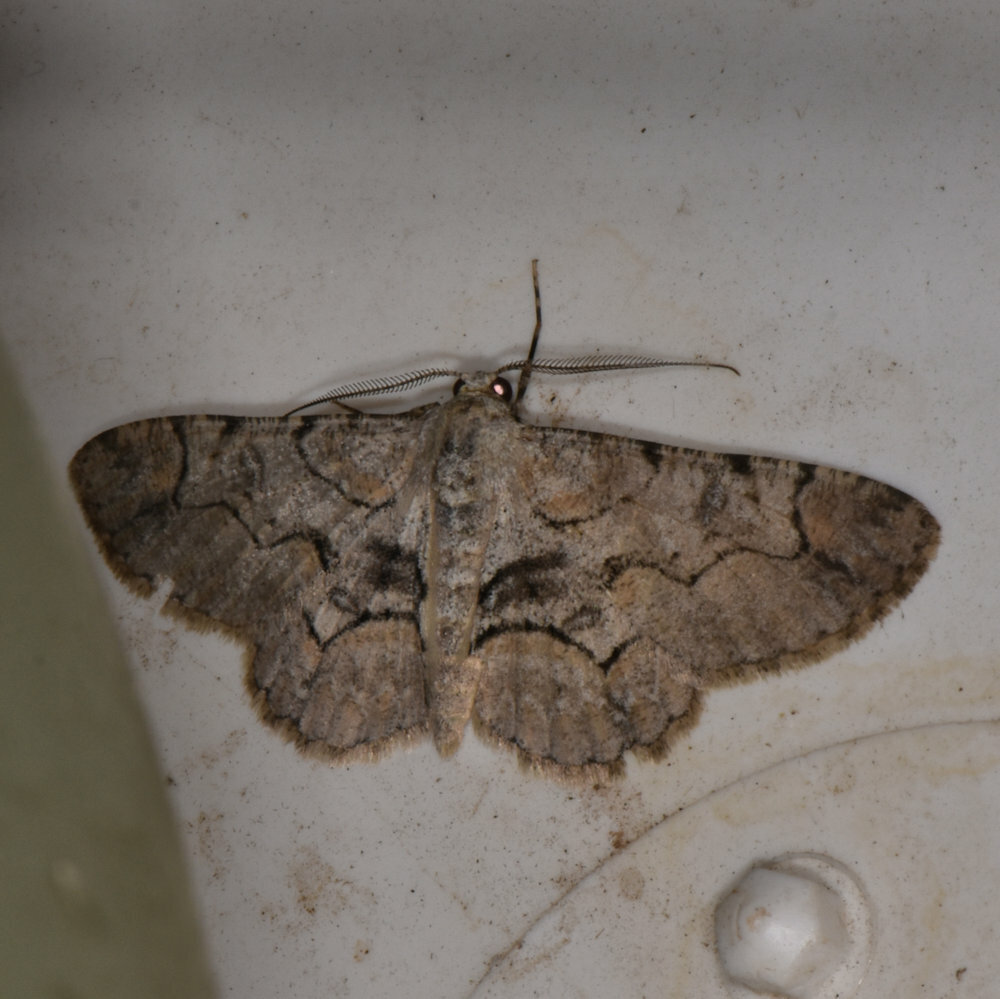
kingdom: Animalia
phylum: Arthropoda
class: Insecta
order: Lepidoptera
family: Geometridae
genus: Iridopsis
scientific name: Iridopsis larvaria
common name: Bent-line gray
